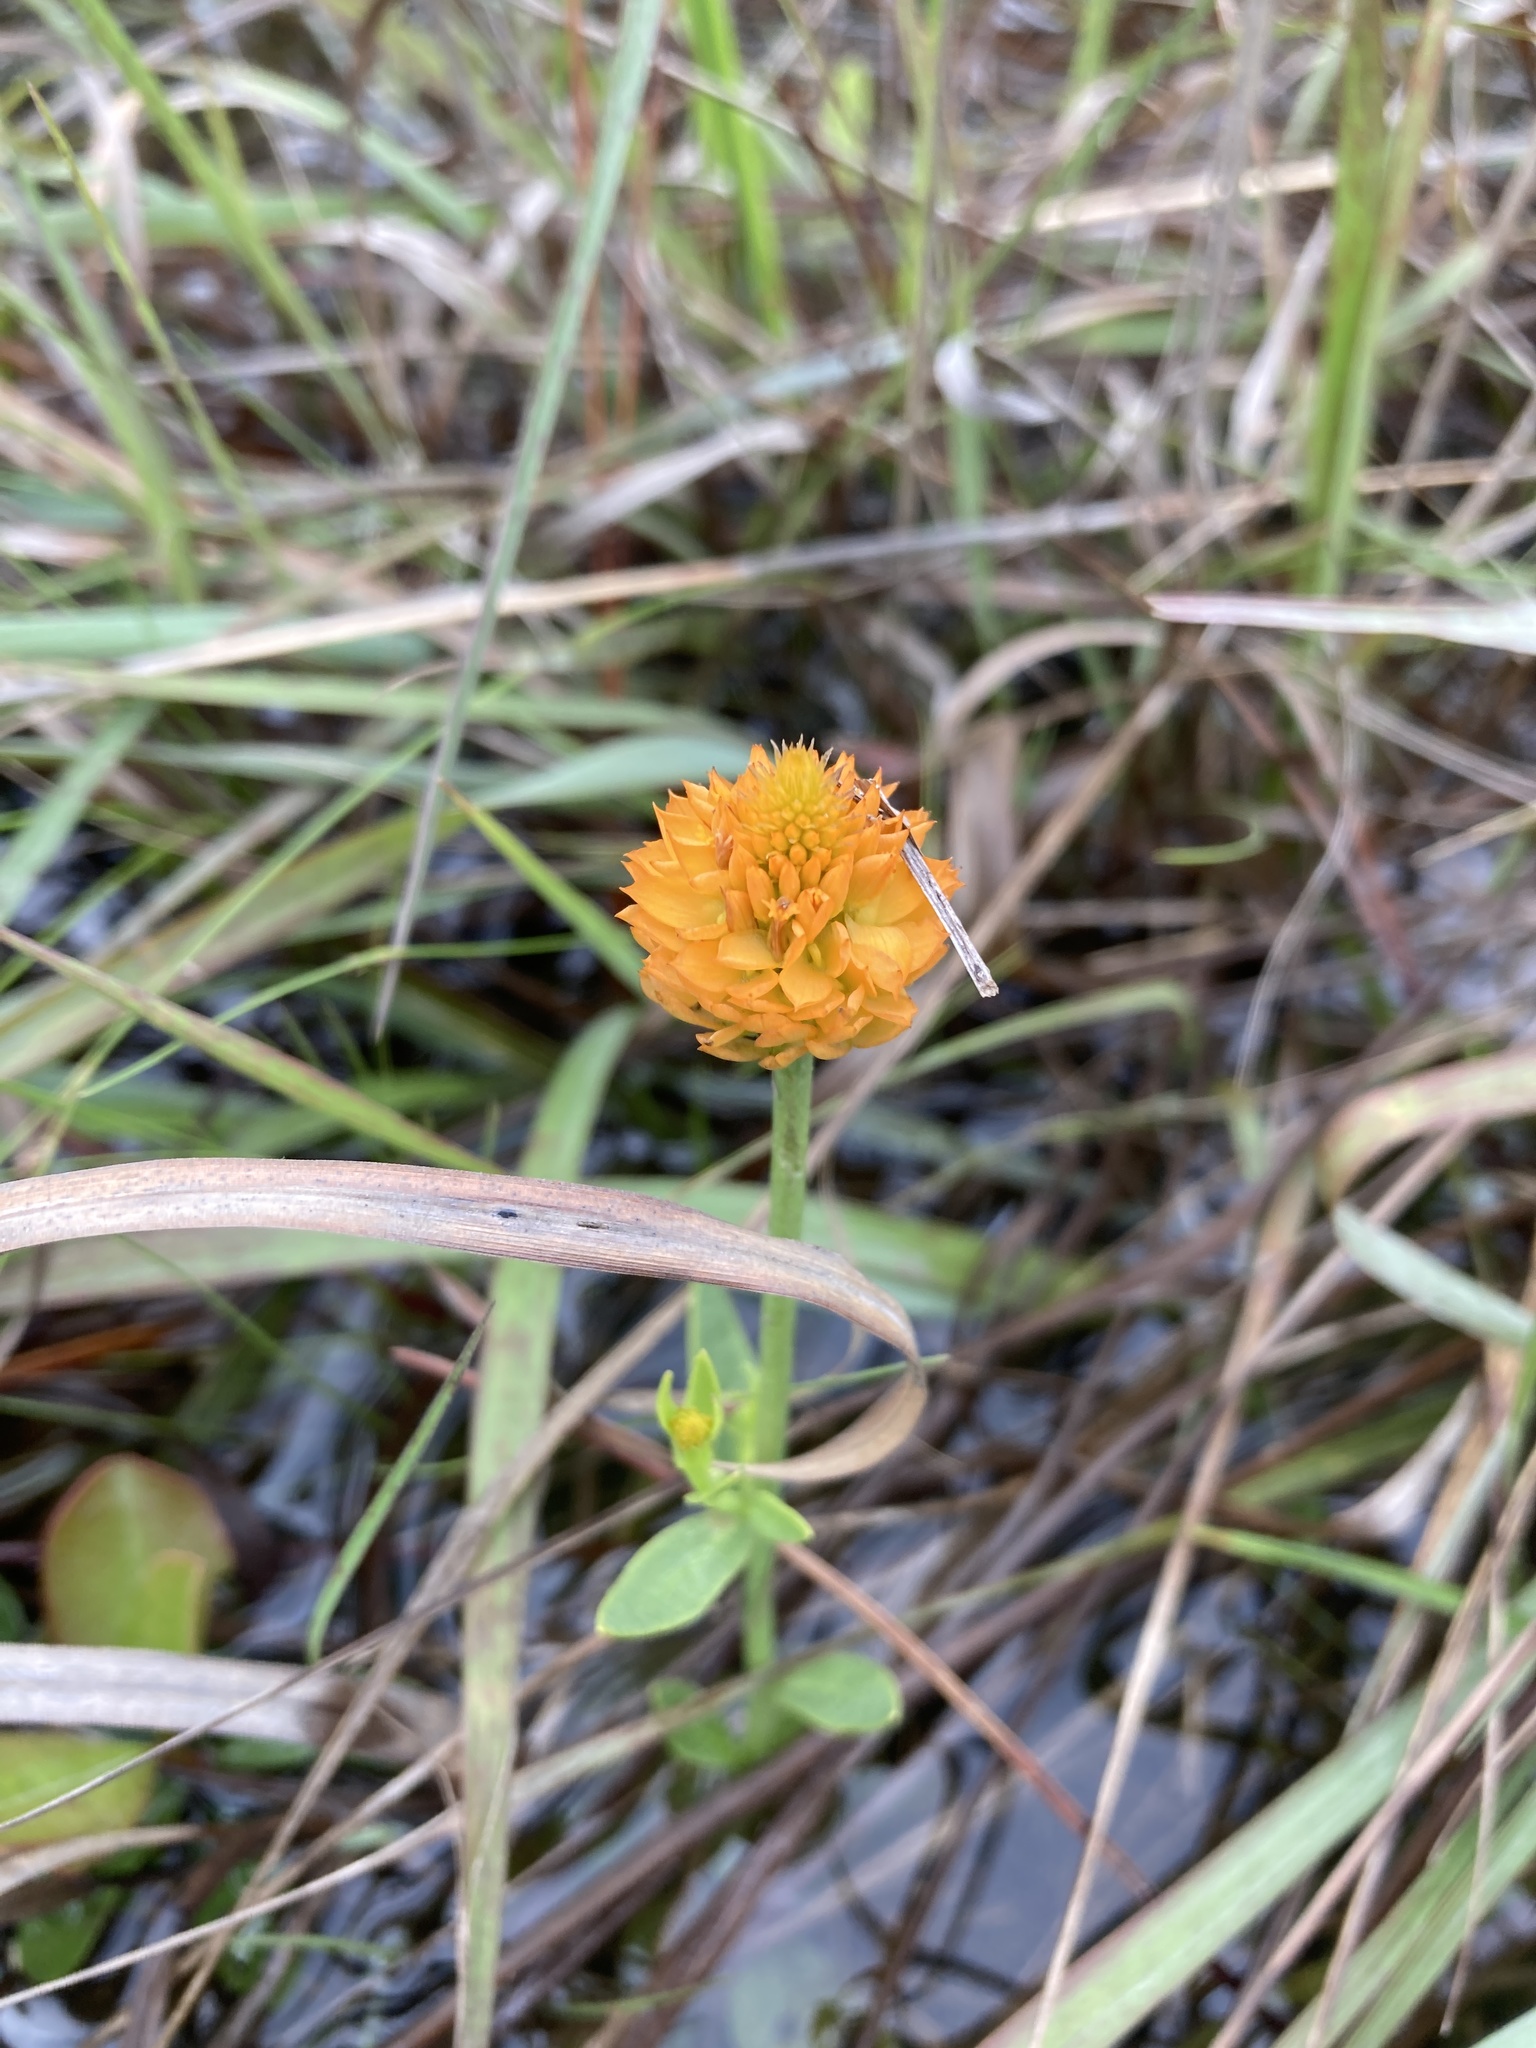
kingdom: Plantae
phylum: Tracheophyta
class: Magnoliopsida
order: Fabales
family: Polygalaceae
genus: Polygala
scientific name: Polygala lutea
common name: Orange milkwort
